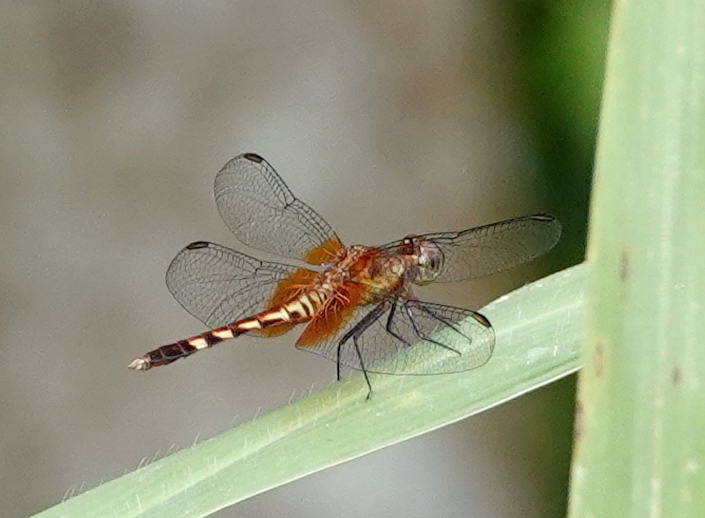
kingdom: Animalia
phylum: Arthropoda
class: Insecta
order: Odonata
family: Libellulidae
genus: Erythrodiplax
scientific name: Erythrodiplax fervida
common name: Red-mantled dragonlet
